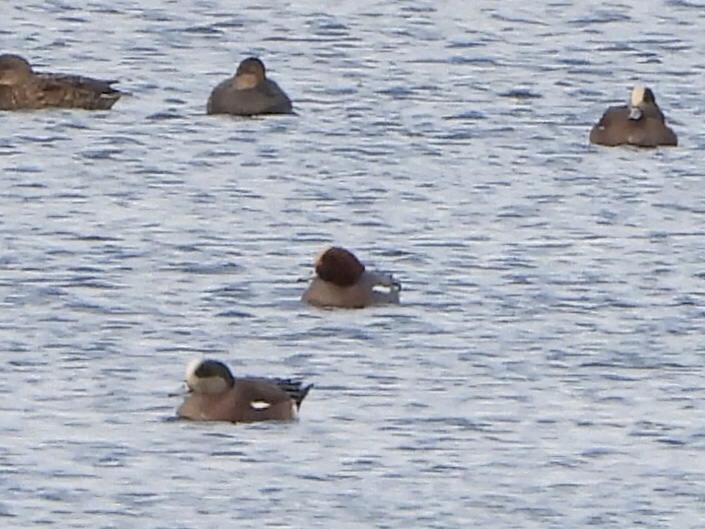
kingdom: Animalia
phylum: Chordata
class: Aves
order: Anseriformes
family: Anatidae
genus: Mareca
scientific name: Mareca penelope
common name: Eurasian wigeon
